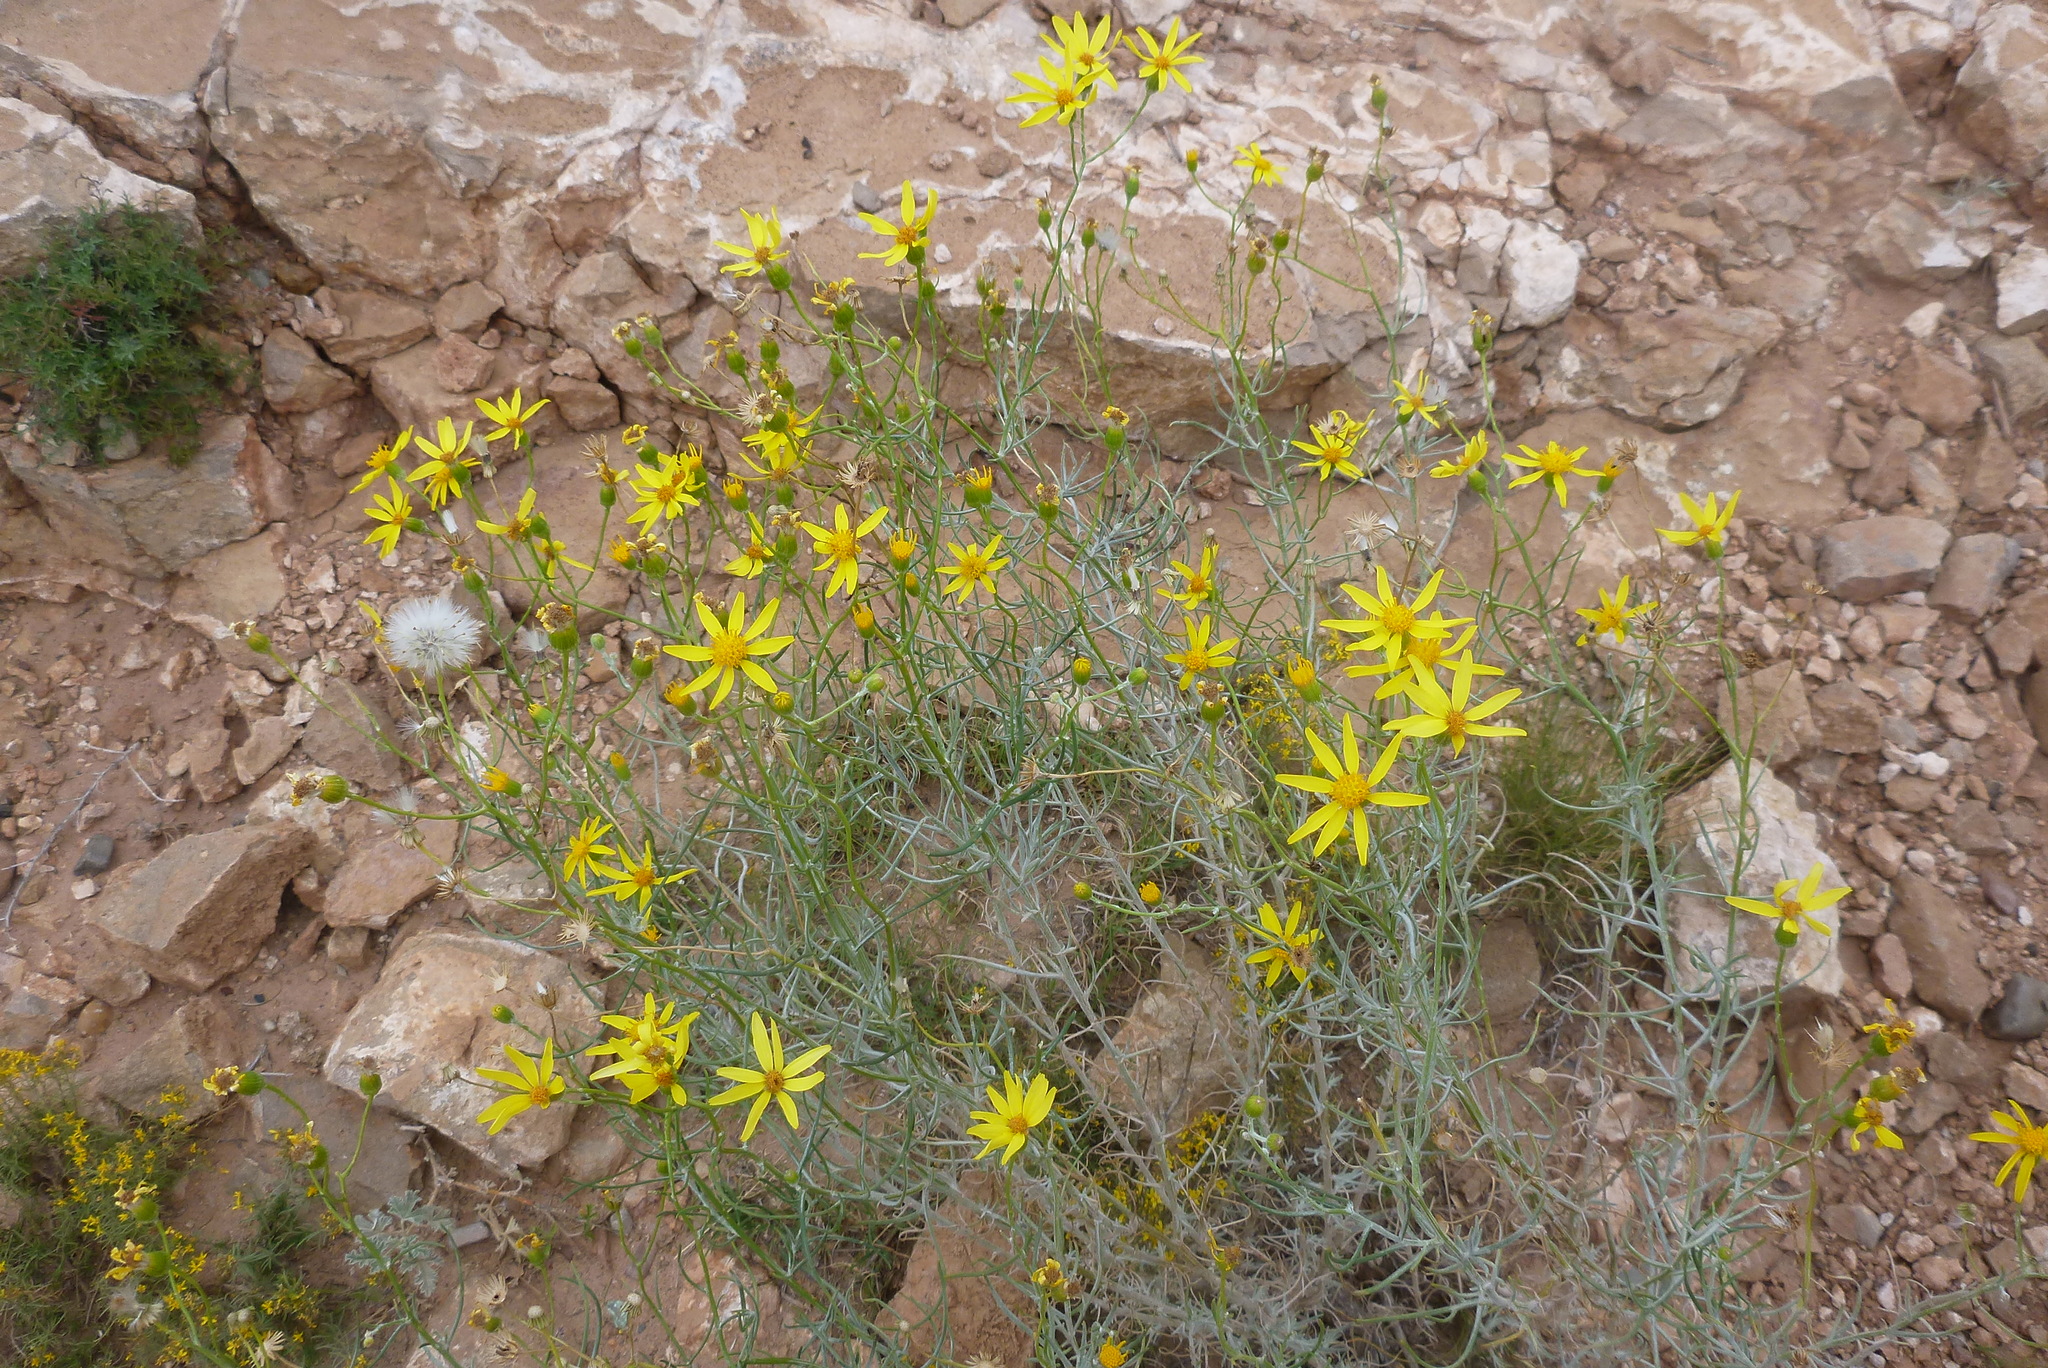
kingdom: Plantae
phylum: Tracheophyta
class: Magnoliopsida
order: Asterales
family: Asteraceae
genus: Senecio
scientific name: Senecio flaccidus
